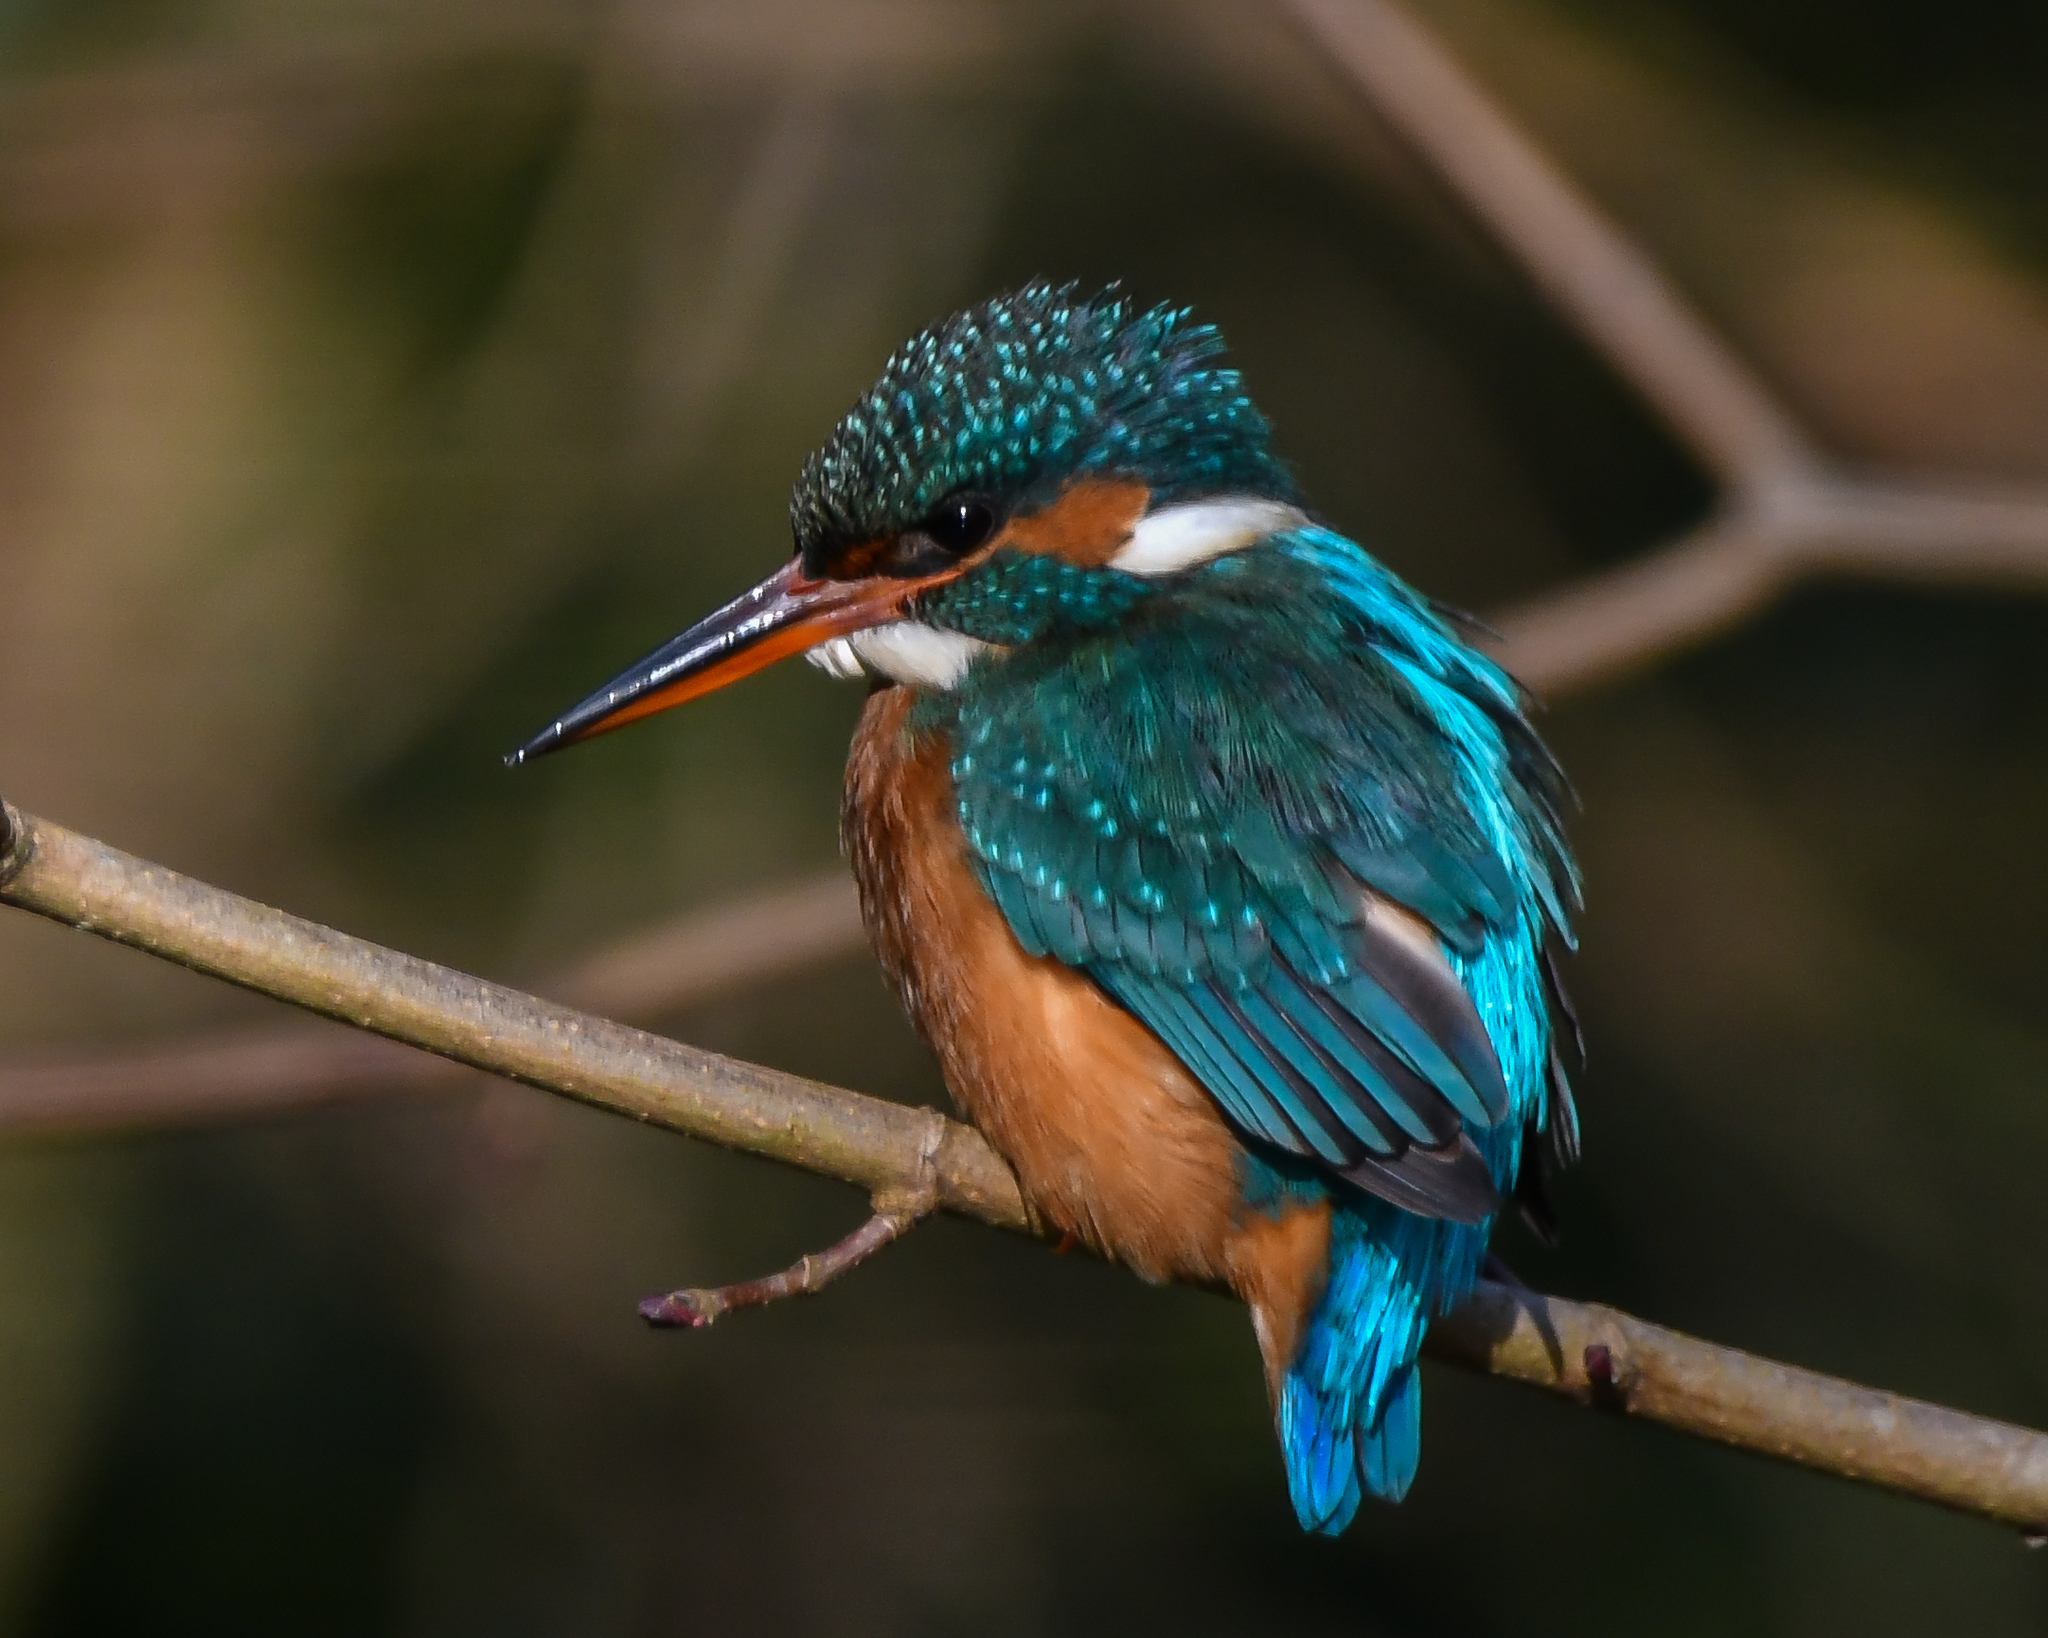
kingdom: Animalia
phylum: Chordata
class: Aves
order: Coraciiformes
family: Alcedinidae
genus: Alcedo
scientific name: Alcedo atthis
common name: Common kingfisher
